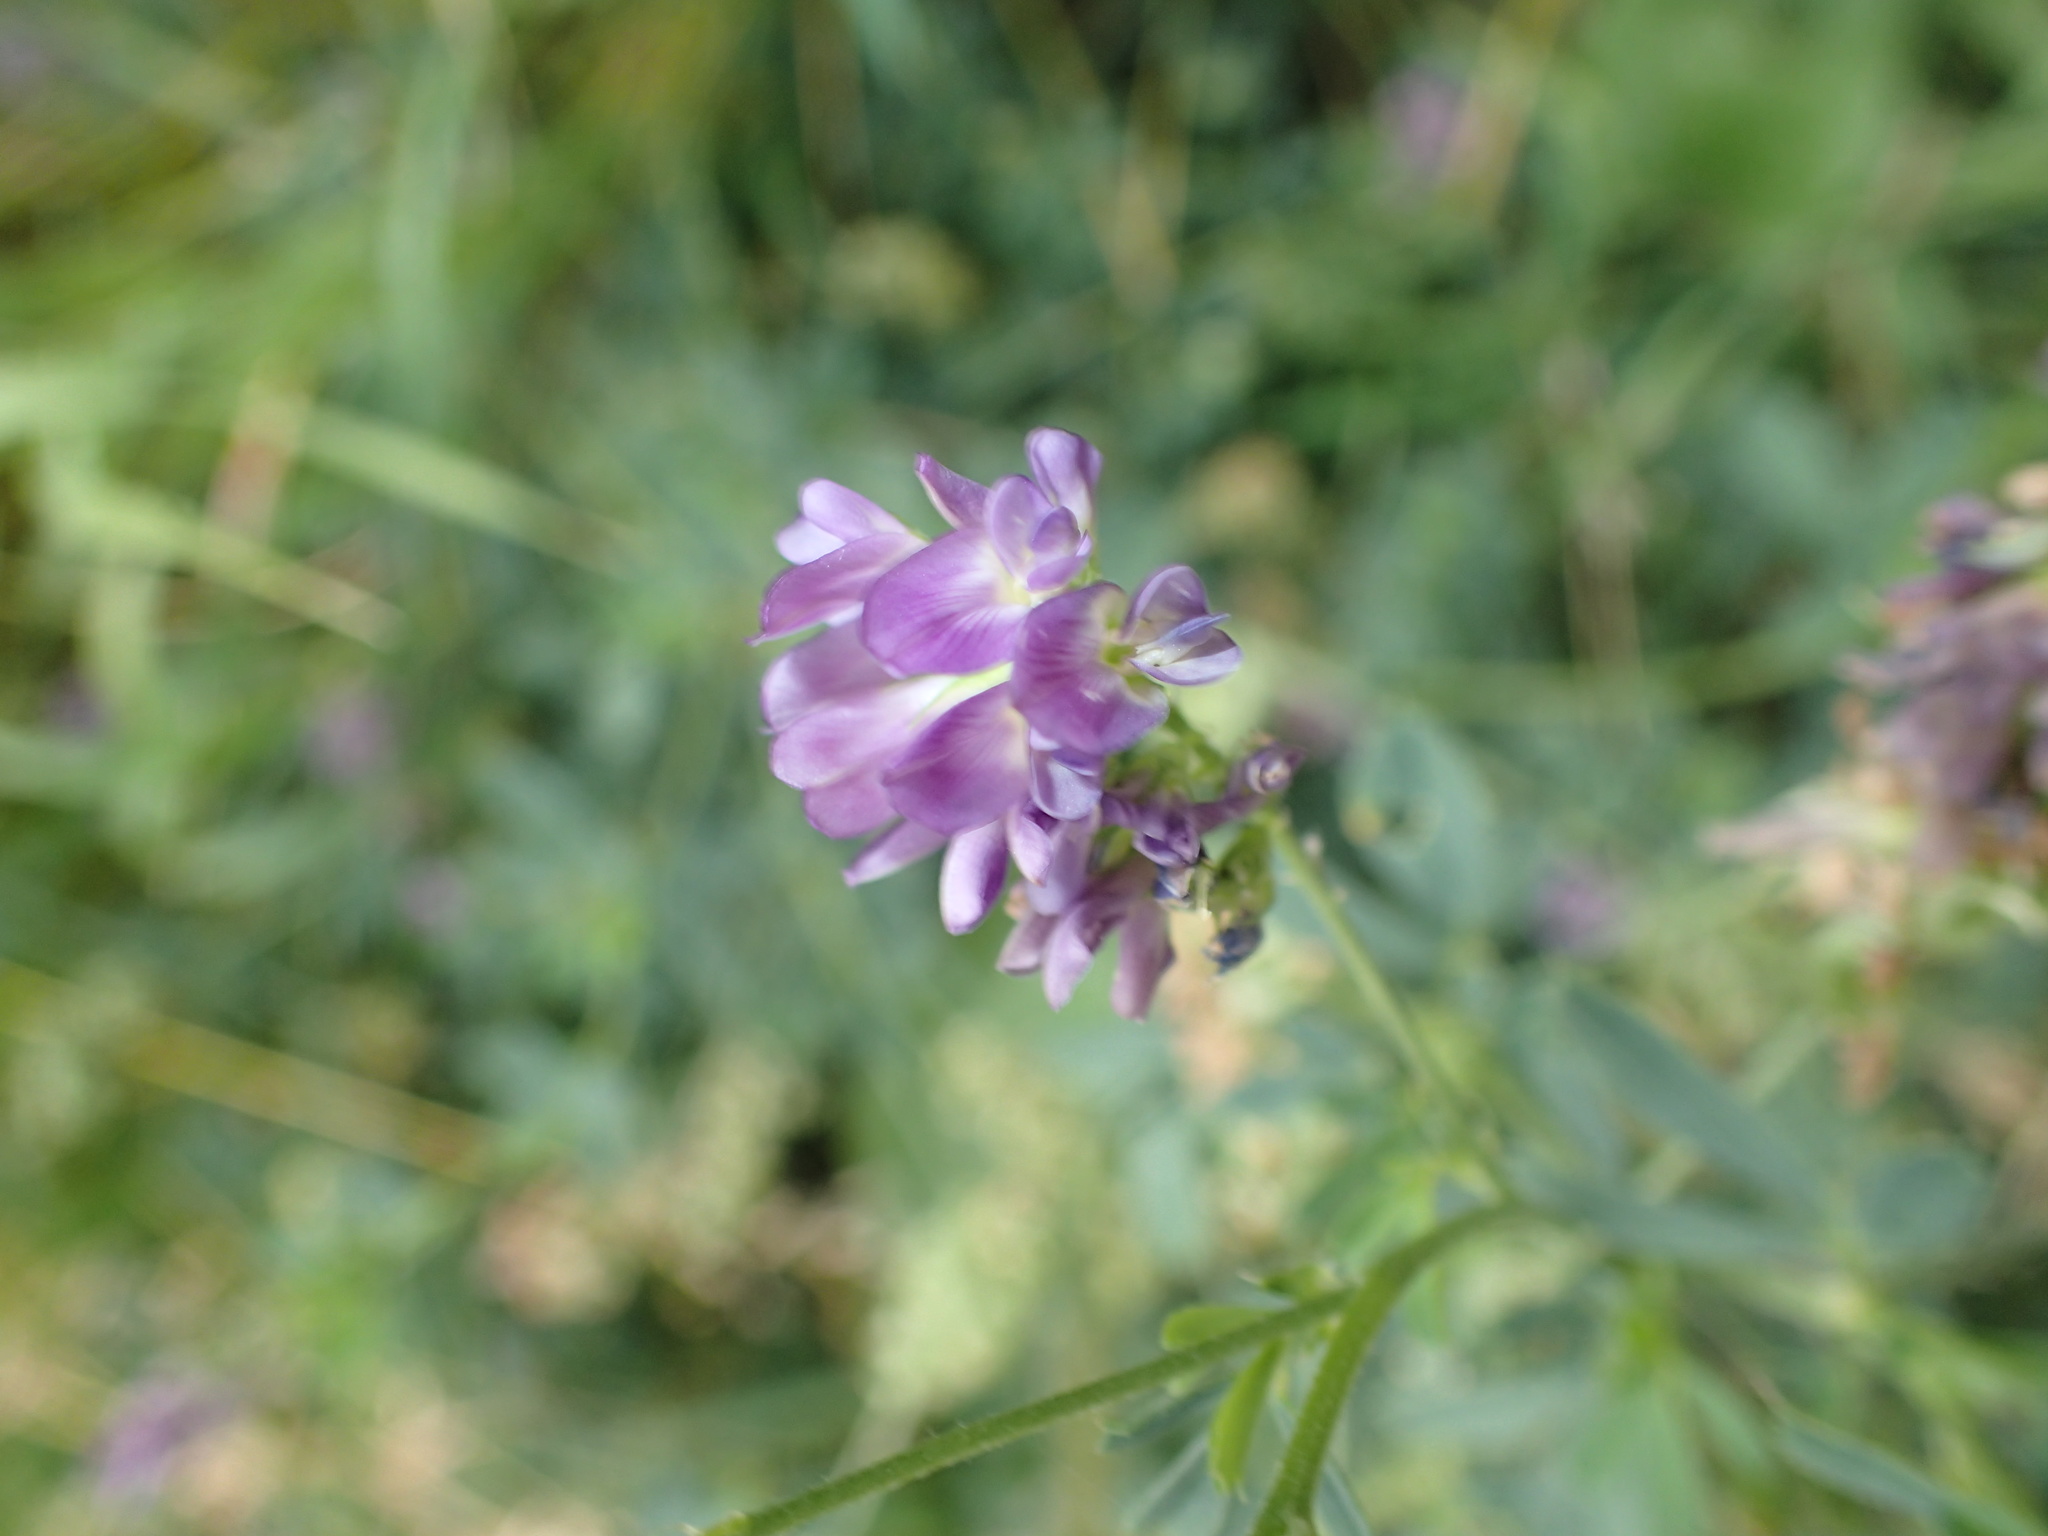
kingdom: Plantae
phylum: Tracheophyta
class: Magnoliopsida
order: Fabales
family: Fabaceae
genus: Medicago
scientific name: Medicago sativa
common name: Alfalfa
